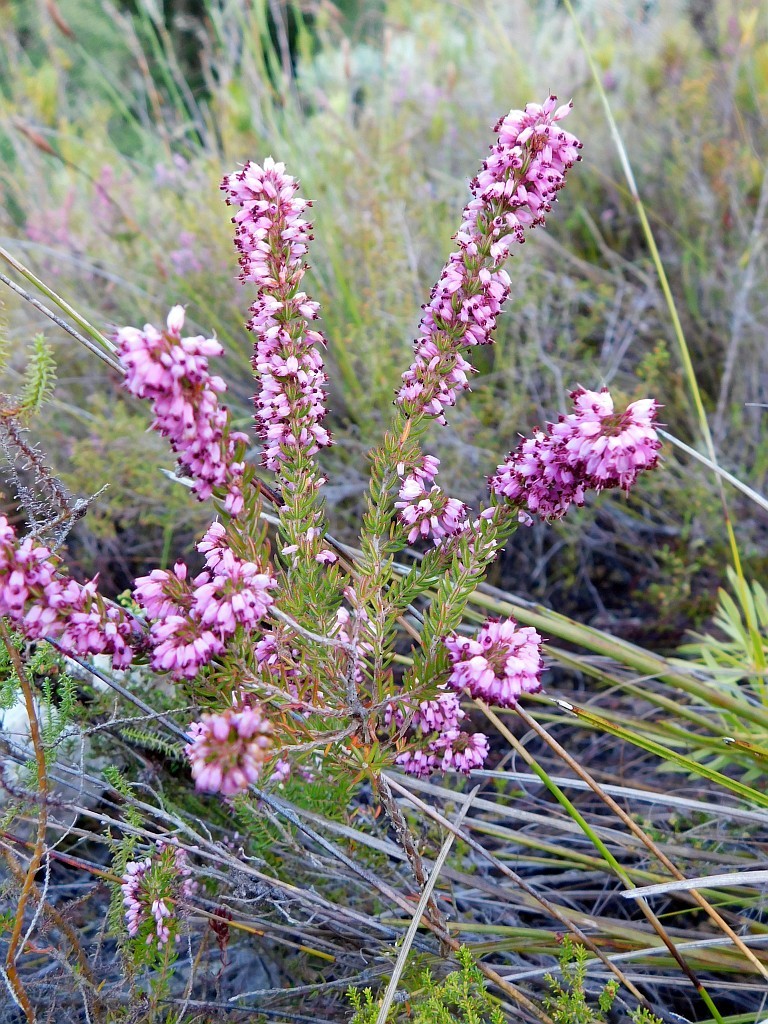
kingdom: Plantae
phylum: Tracheophyta
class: Magnoliopsida
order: Ericales
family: Ericaceae
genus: Erica
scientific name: Erica nudiflora
